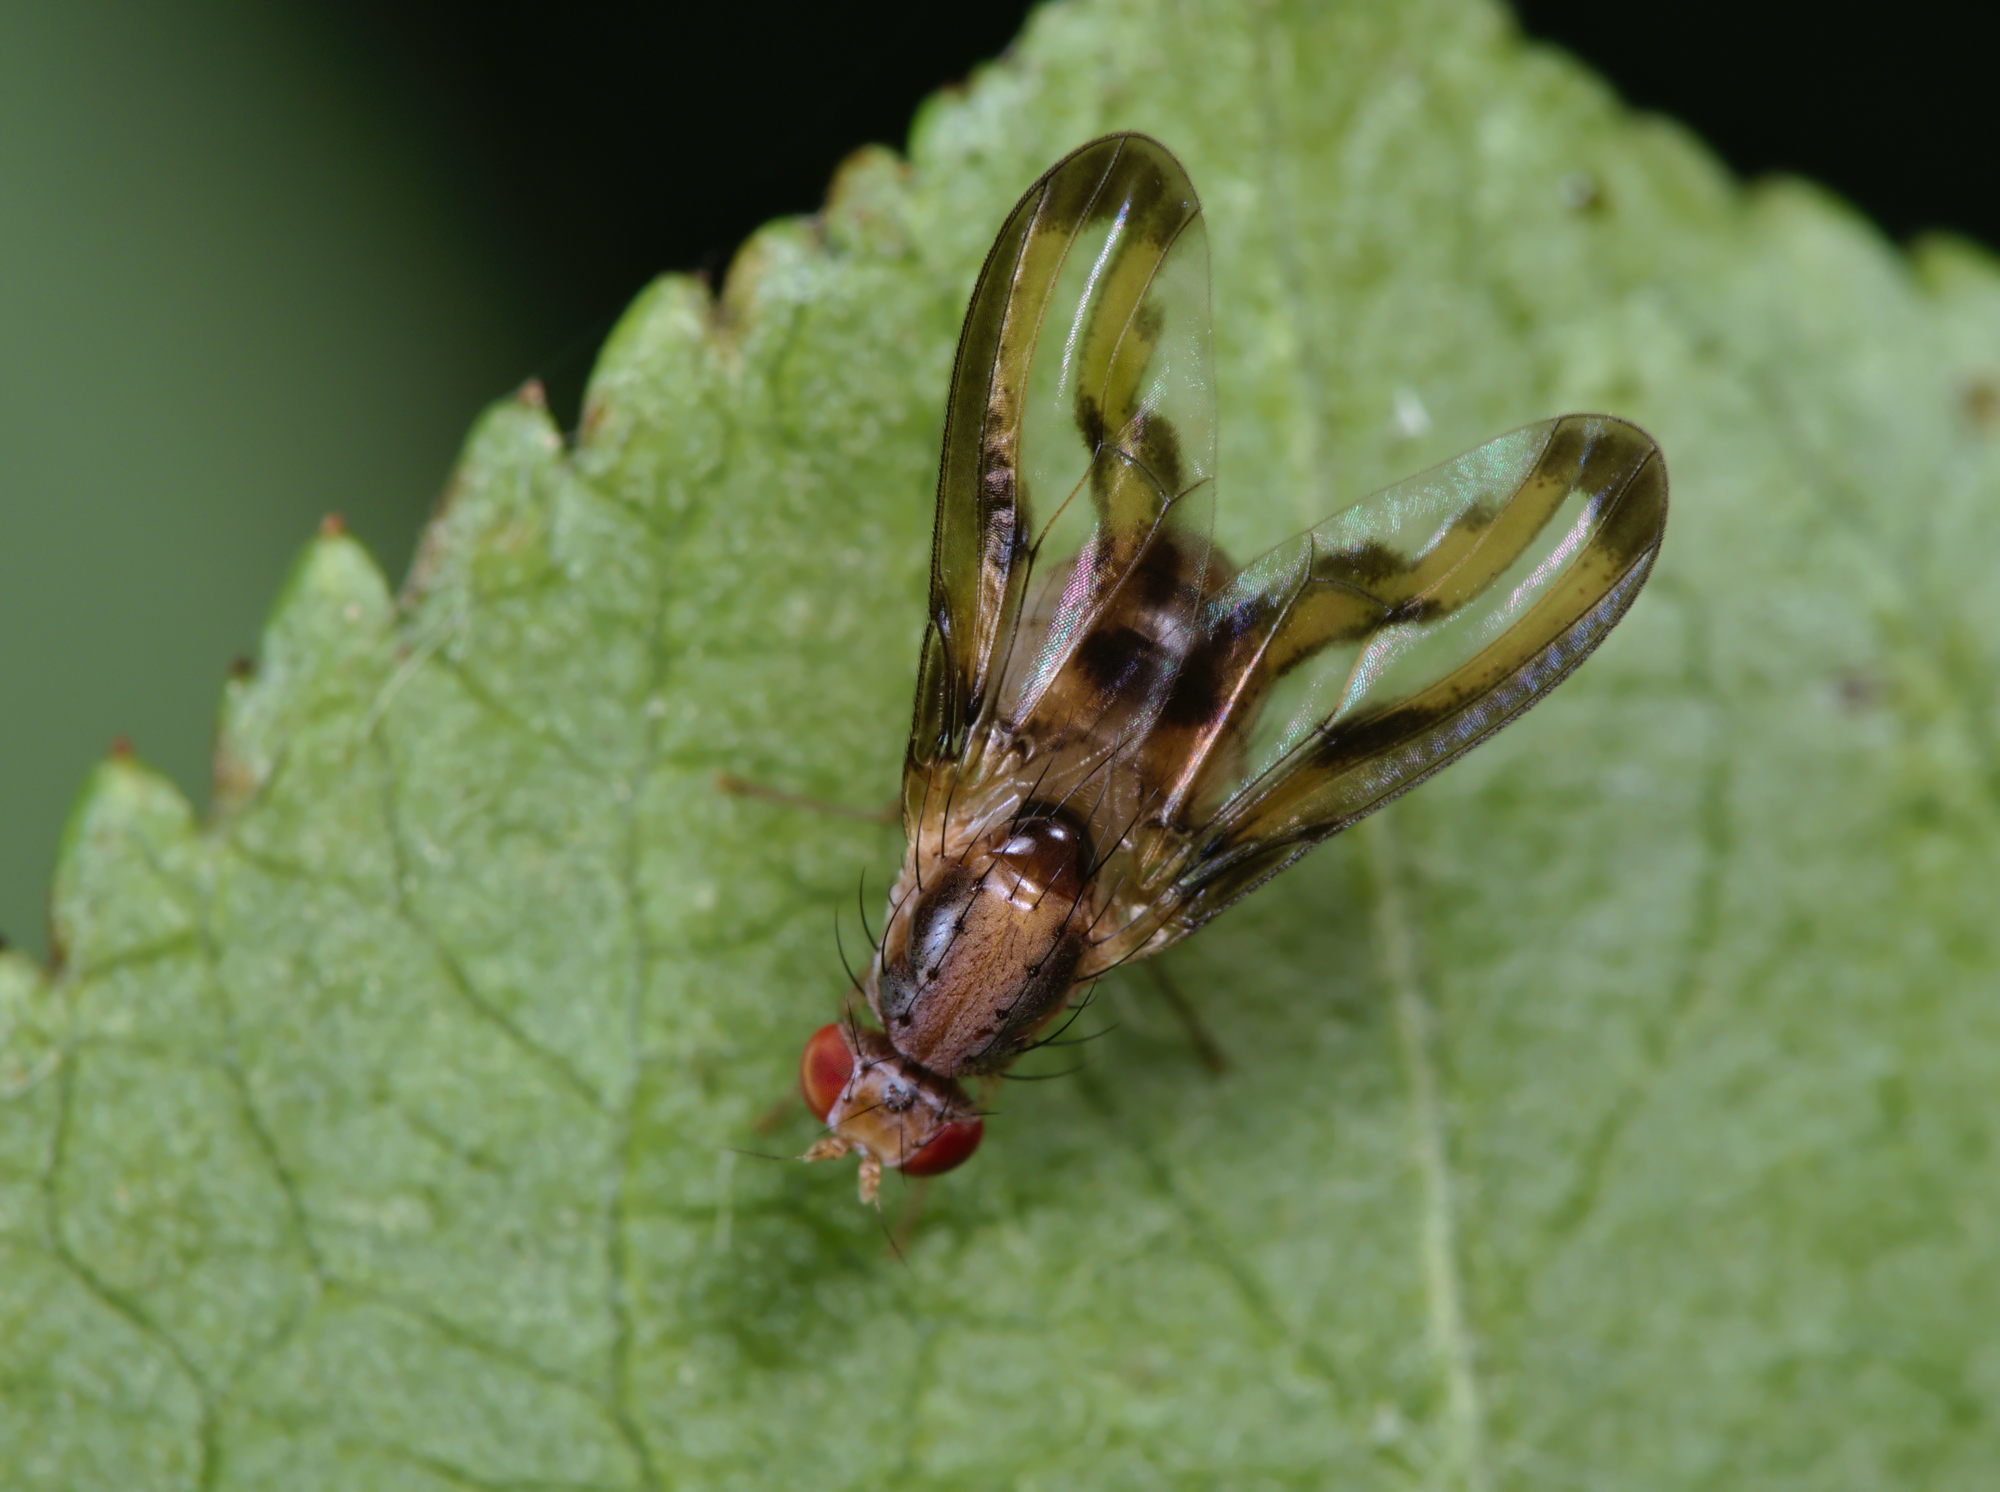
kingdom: Animalia
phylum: Arthropoda
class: Insecta
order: Diptera
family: Pallopteridae
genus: Toxonevra
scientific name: Toxonevra muliebris
